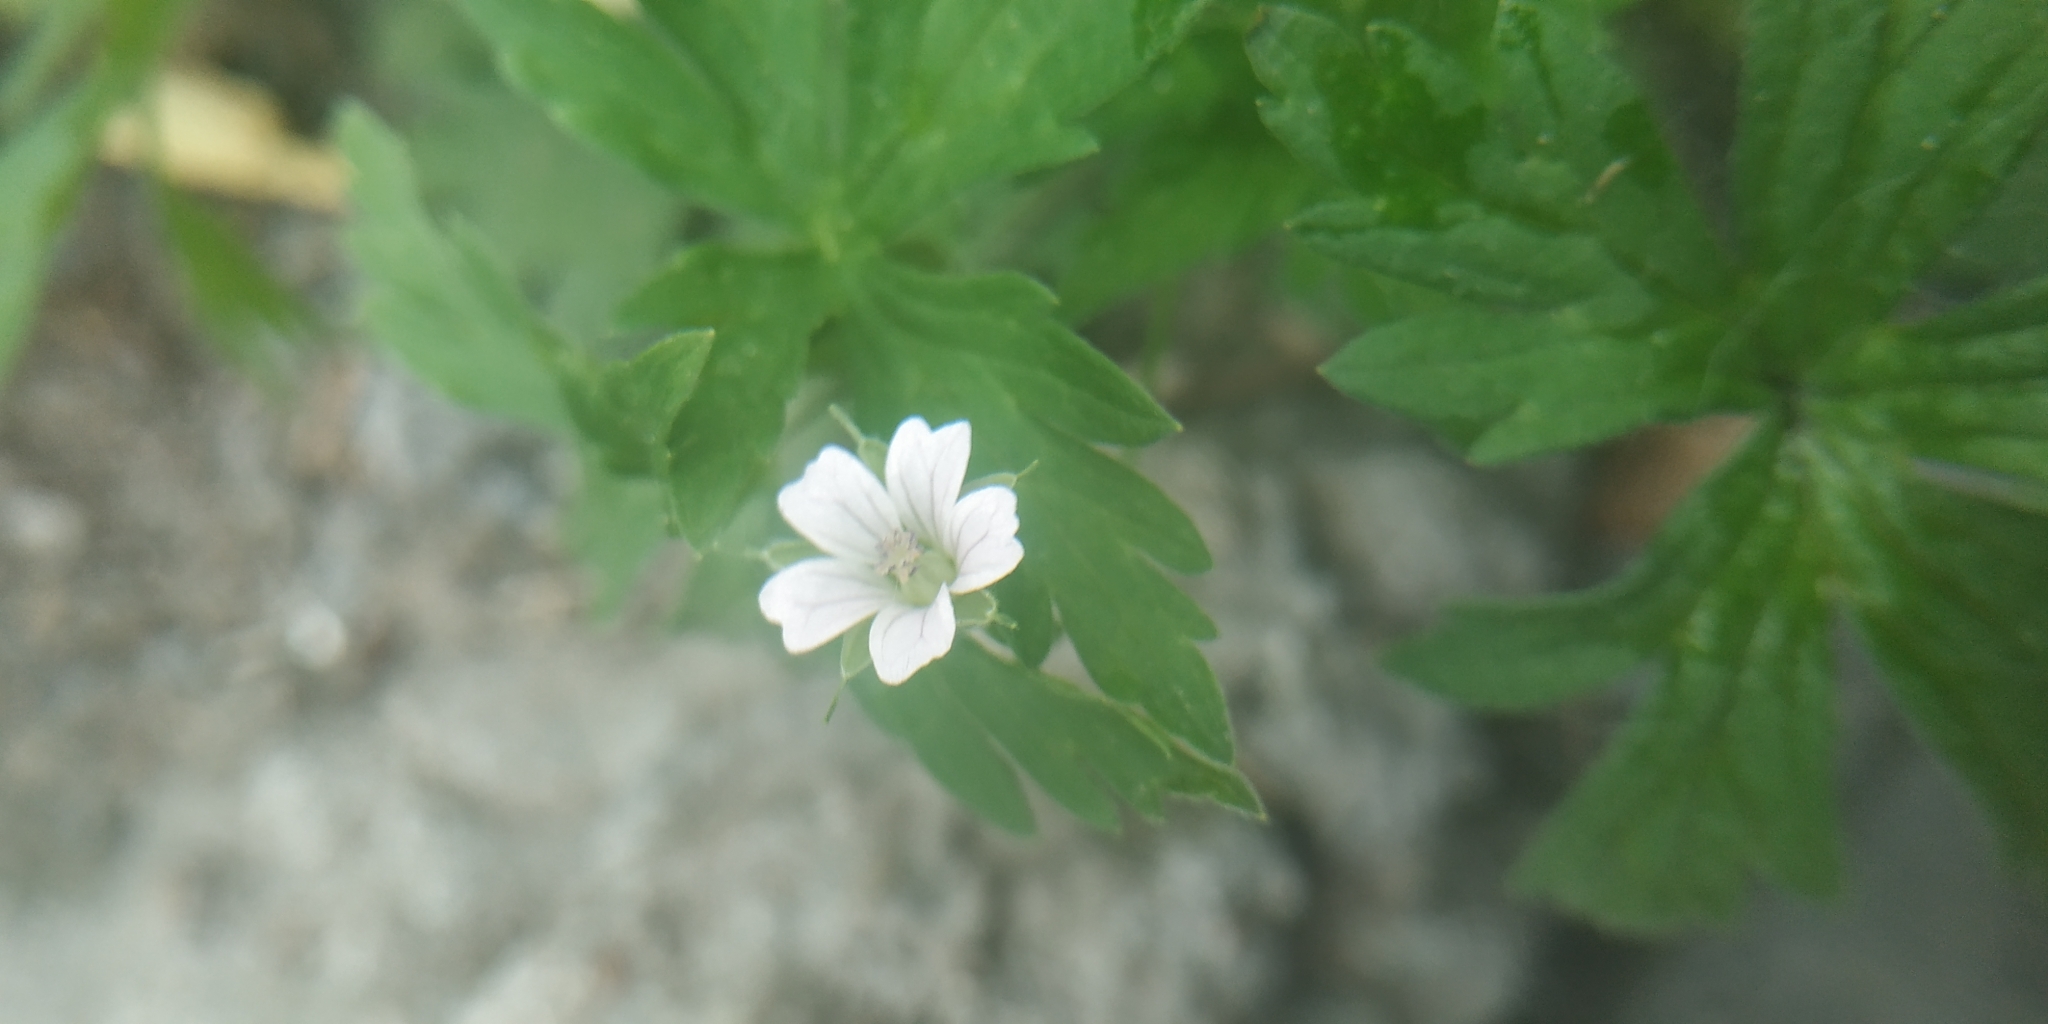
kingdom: Plantae
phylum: Tracheophyta
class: Magnoliopsida
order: Geraniales
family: Geraniaceae
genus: Geranium
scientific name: Geranium sibiricum
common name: Siberian crane's-bill
